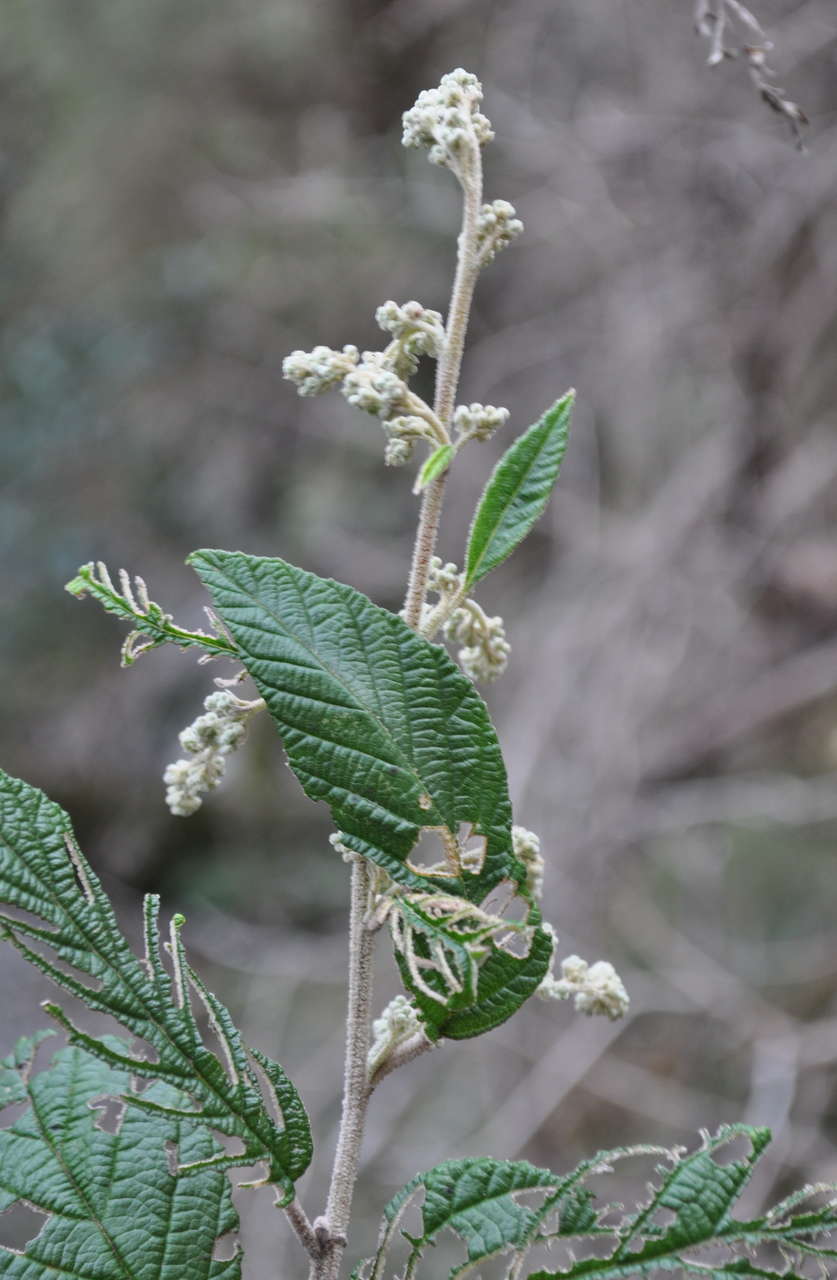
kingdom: Plantae
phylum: Tracheophyta
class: Magnoliopsida
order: Rosales
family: Rhamnaceae
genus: Pomaderris
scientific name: Pomaderris aspera
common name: Hazel pomaderris
